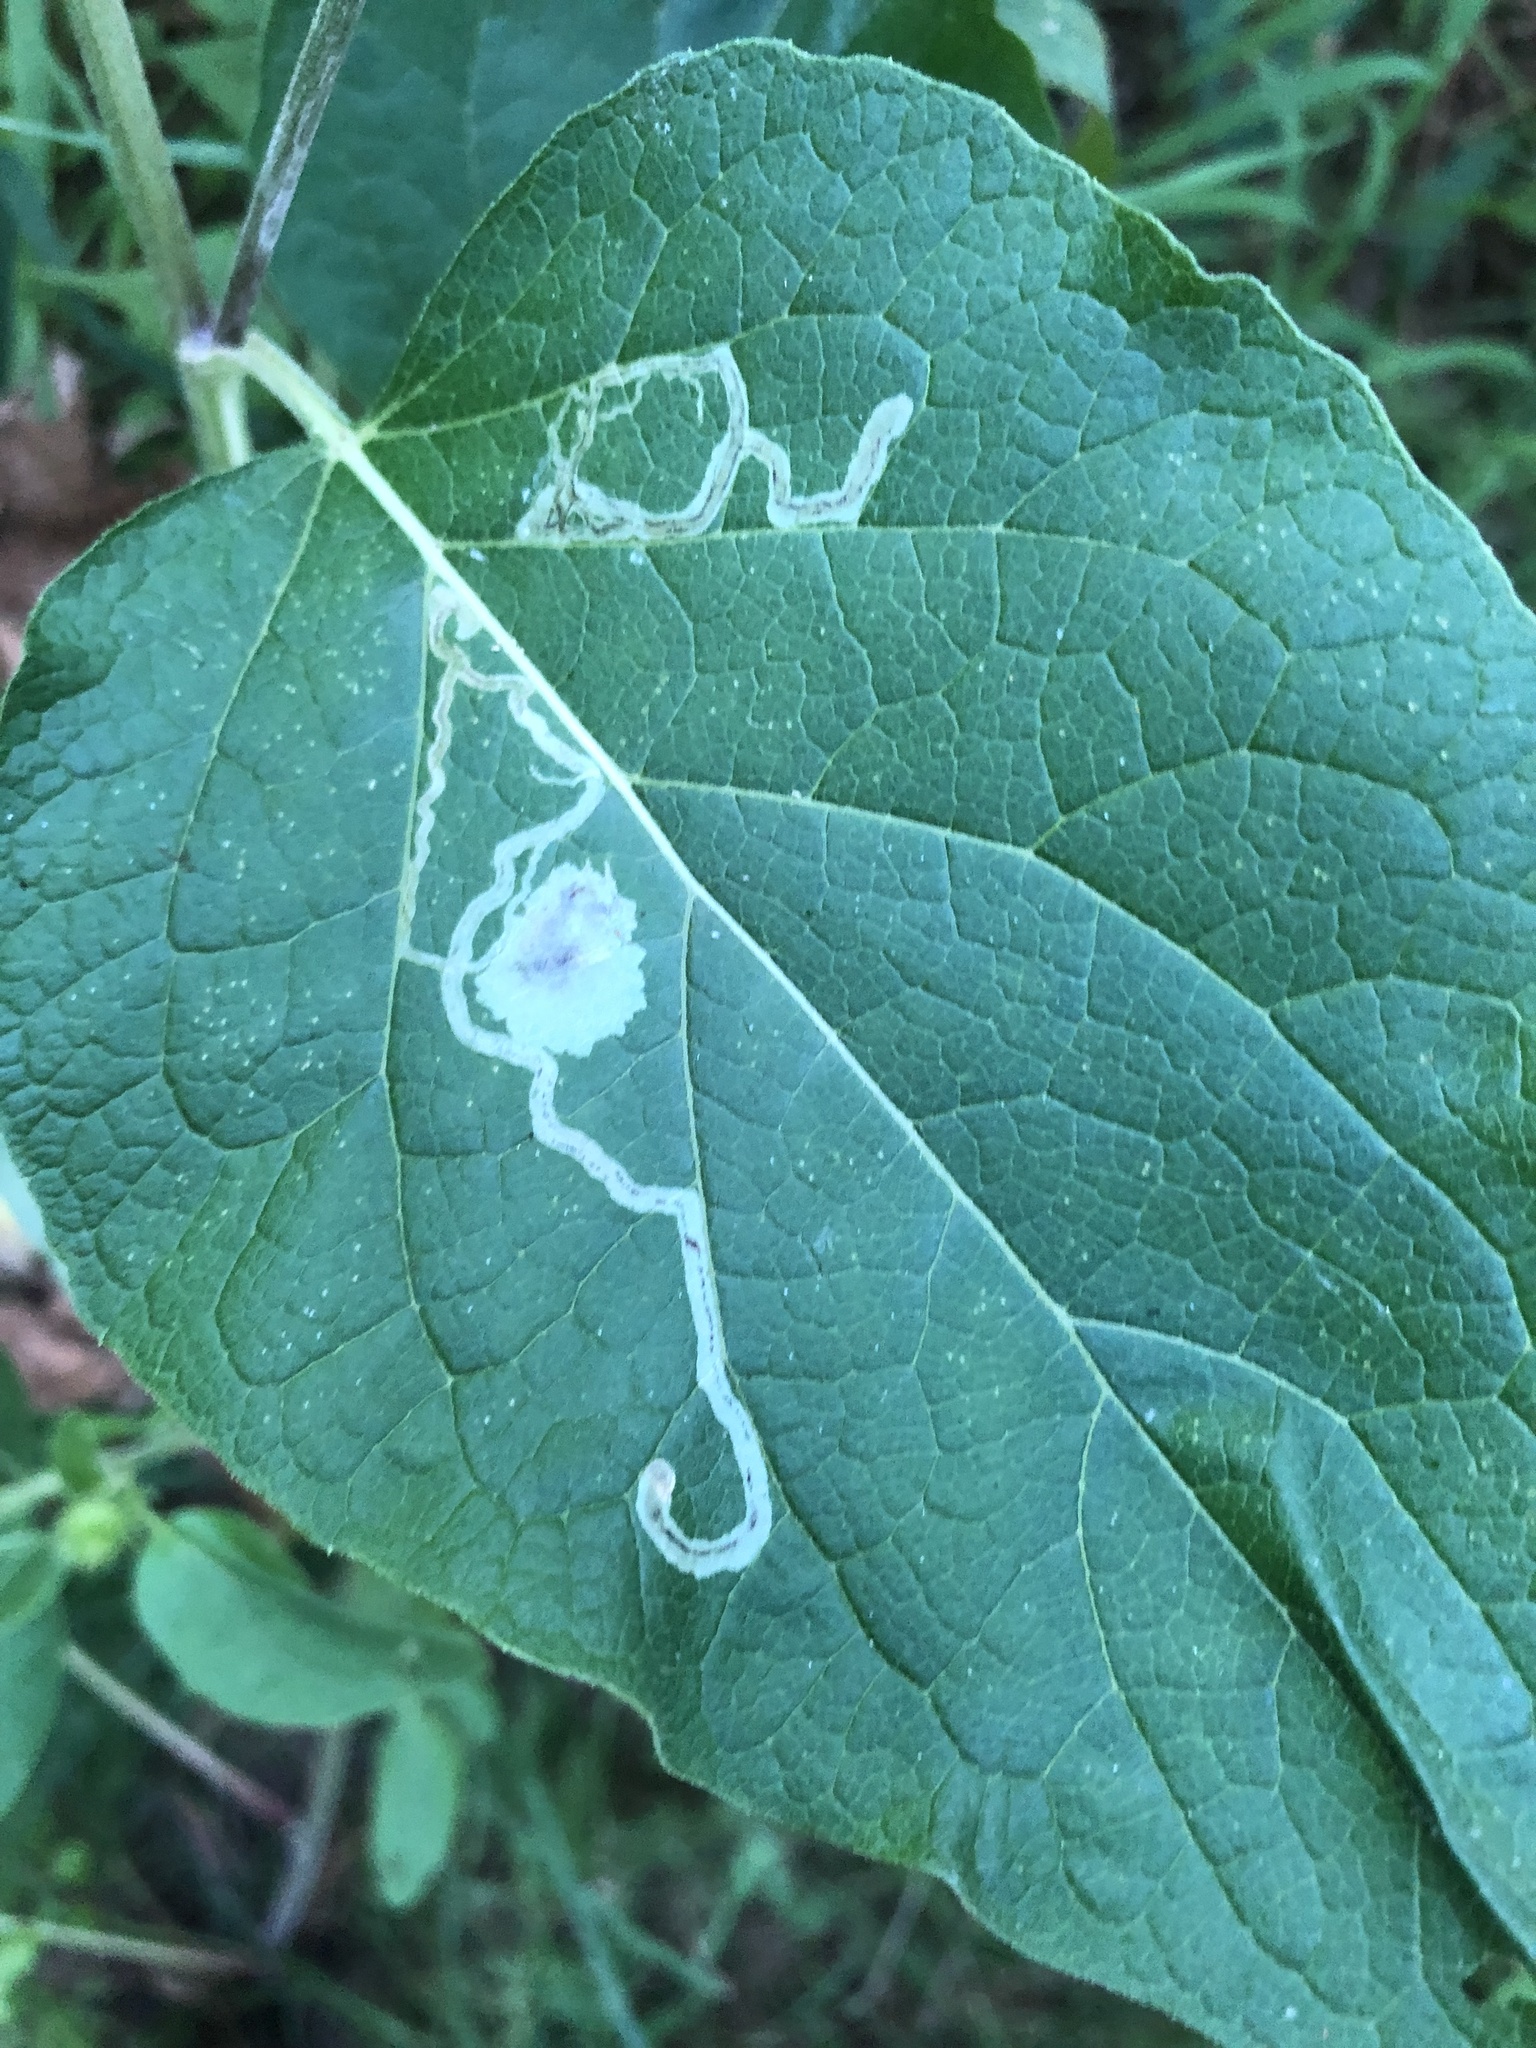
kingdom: Animalia
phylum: Arthropoda
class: Insecta
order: Diptera
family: Agromyzidae
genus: Liriomyza
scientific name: Liriomyza arctii
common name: Burdock leafminer
